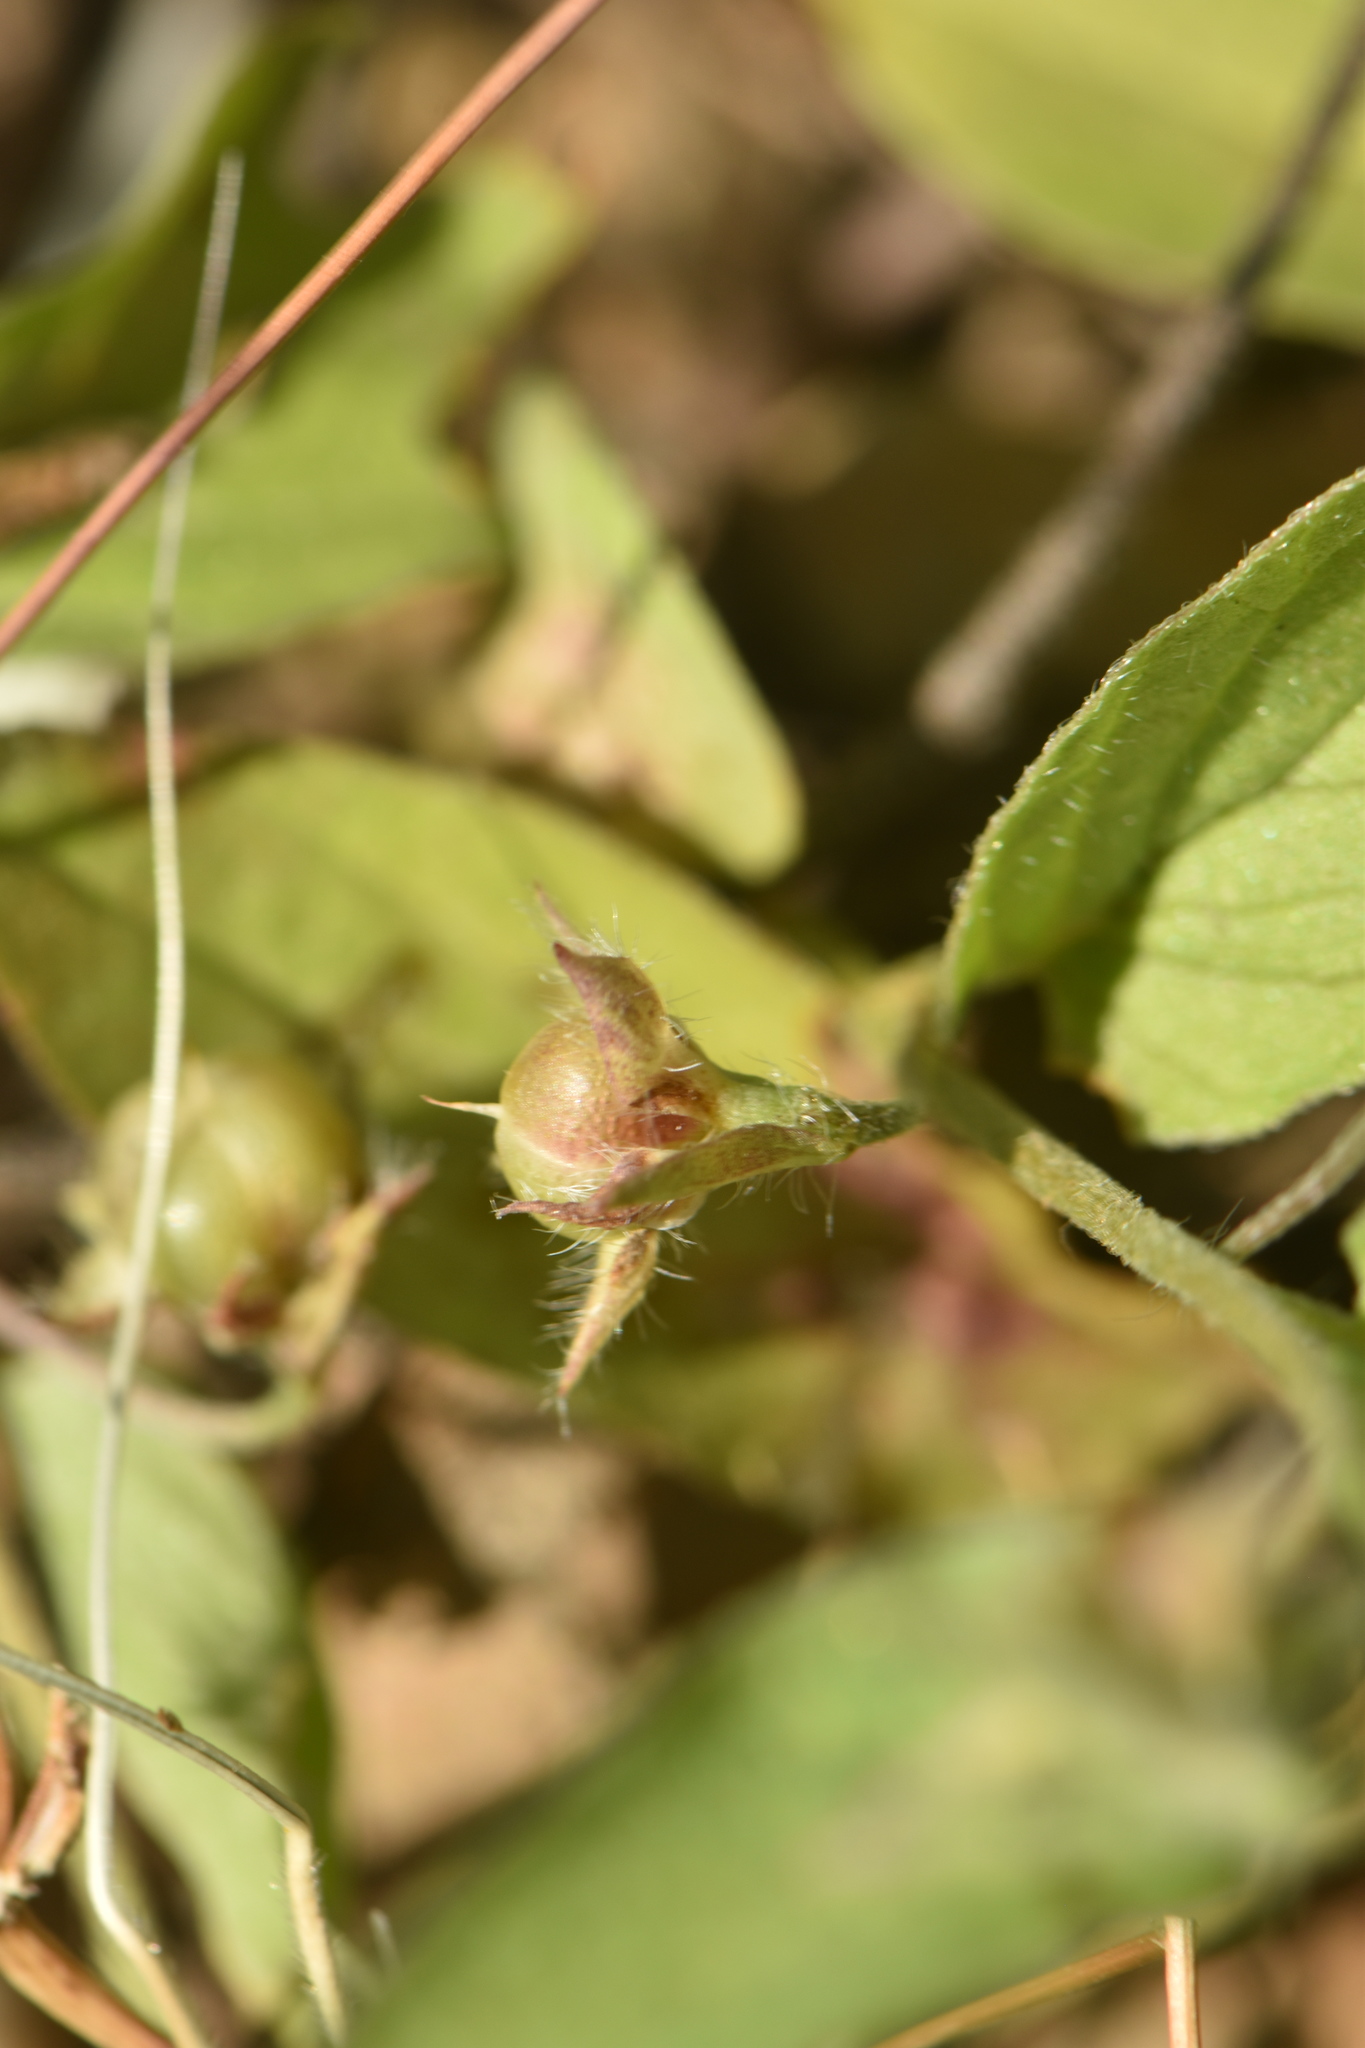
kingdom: Plantae
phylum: Tracheophyta
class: Magnoliopsida
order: Solanales
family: Convolvulaceae
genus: Convolvulus
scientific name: Convolvulus siculus
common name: Small blue-convolvulus
